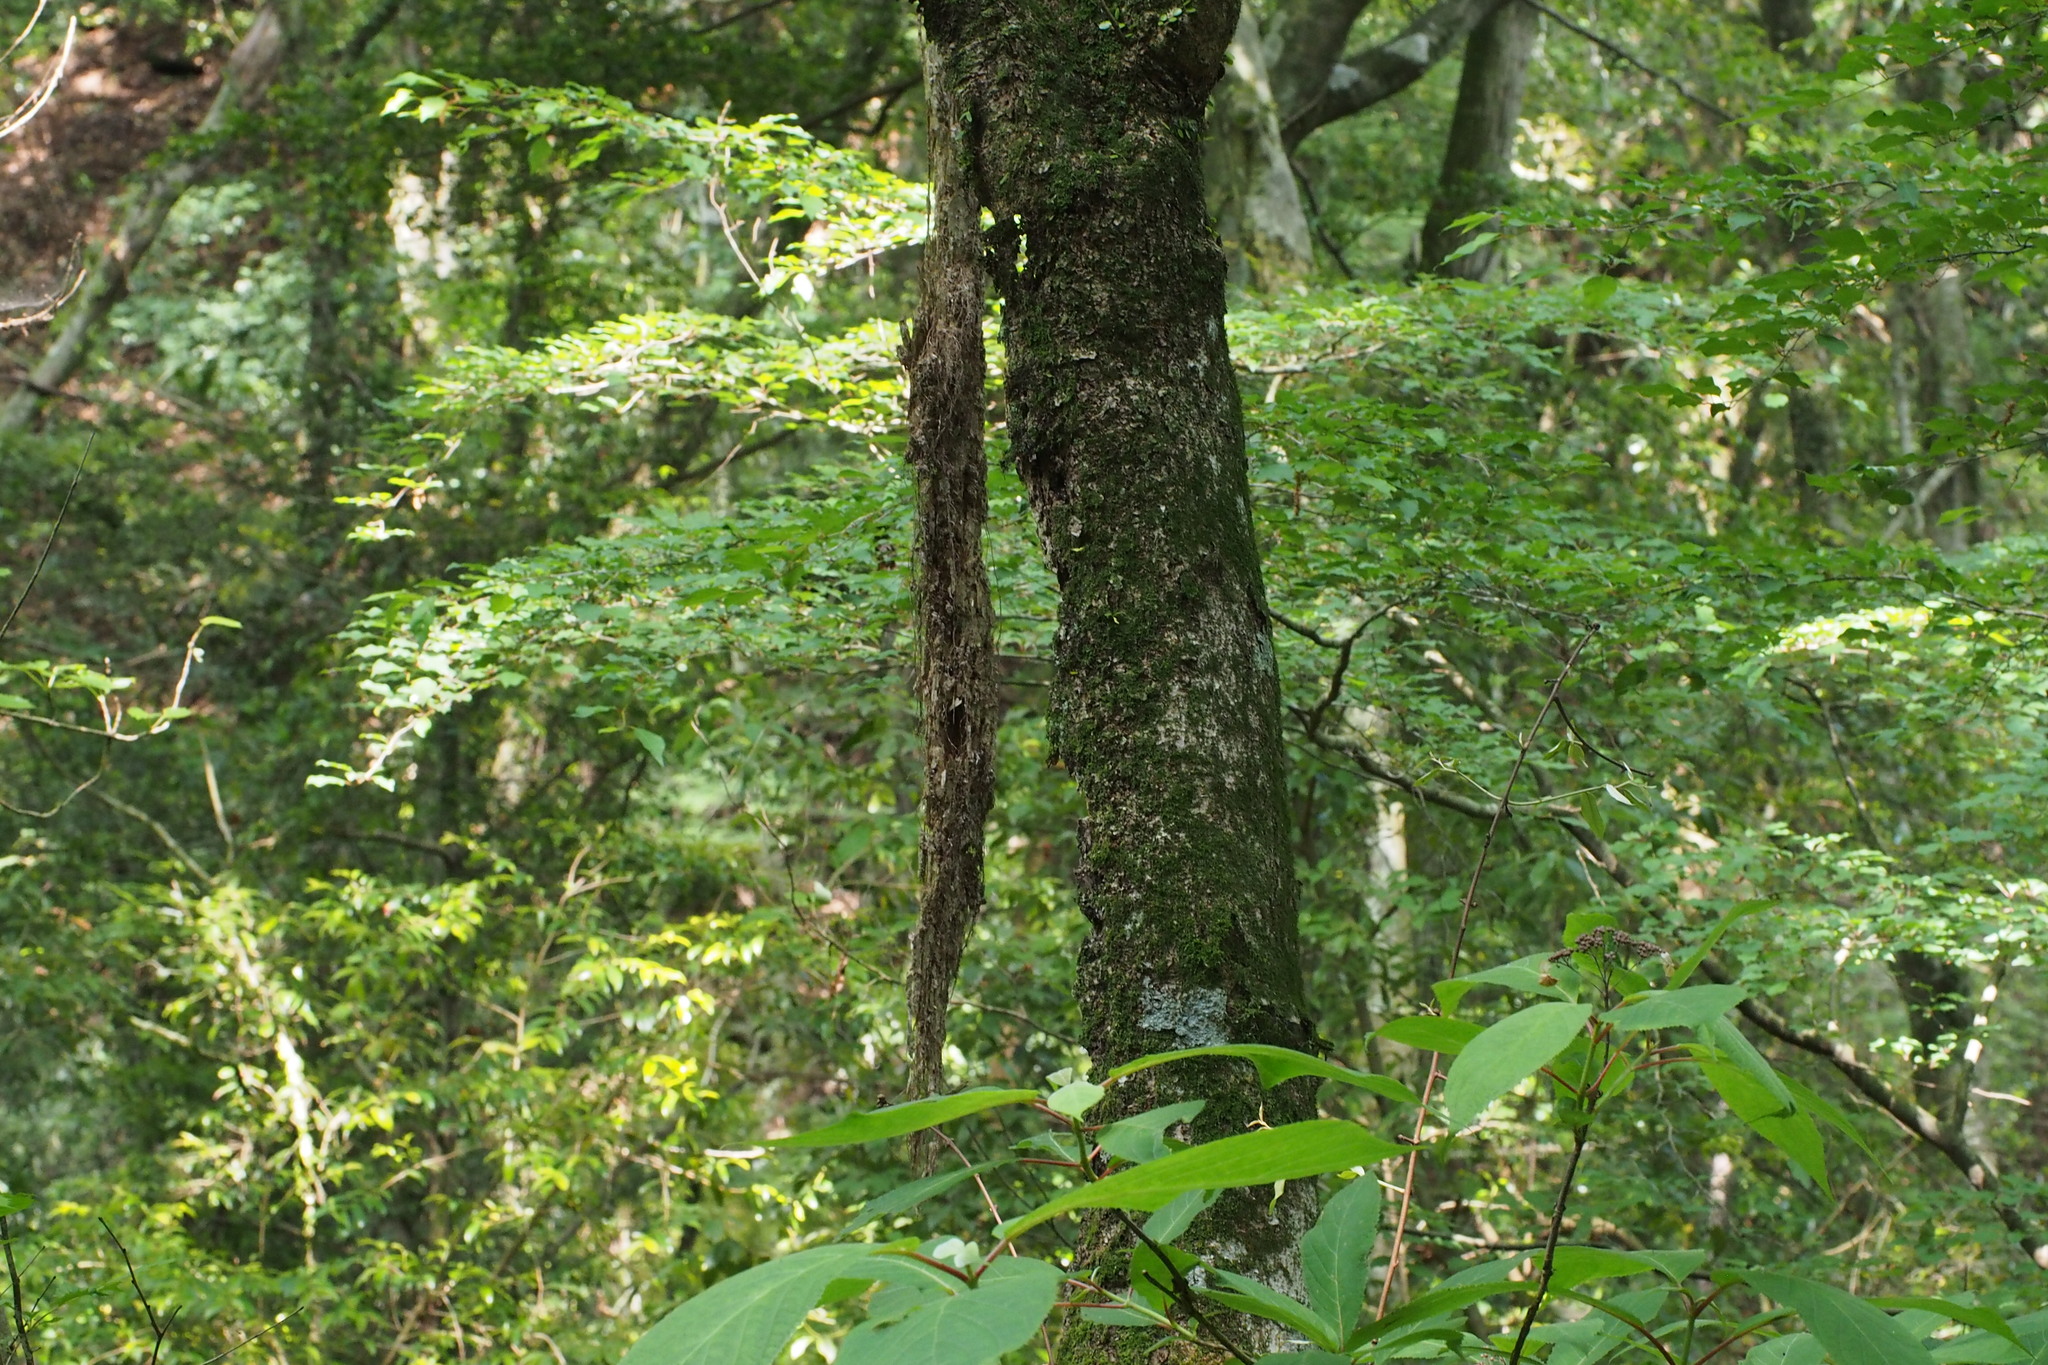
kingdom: Plantae
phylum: Tracheophyta
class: Magnoliopsida
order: Ranunculales
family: Eupteleaceae
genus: Euptelea
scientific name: Euptelea polyandra
